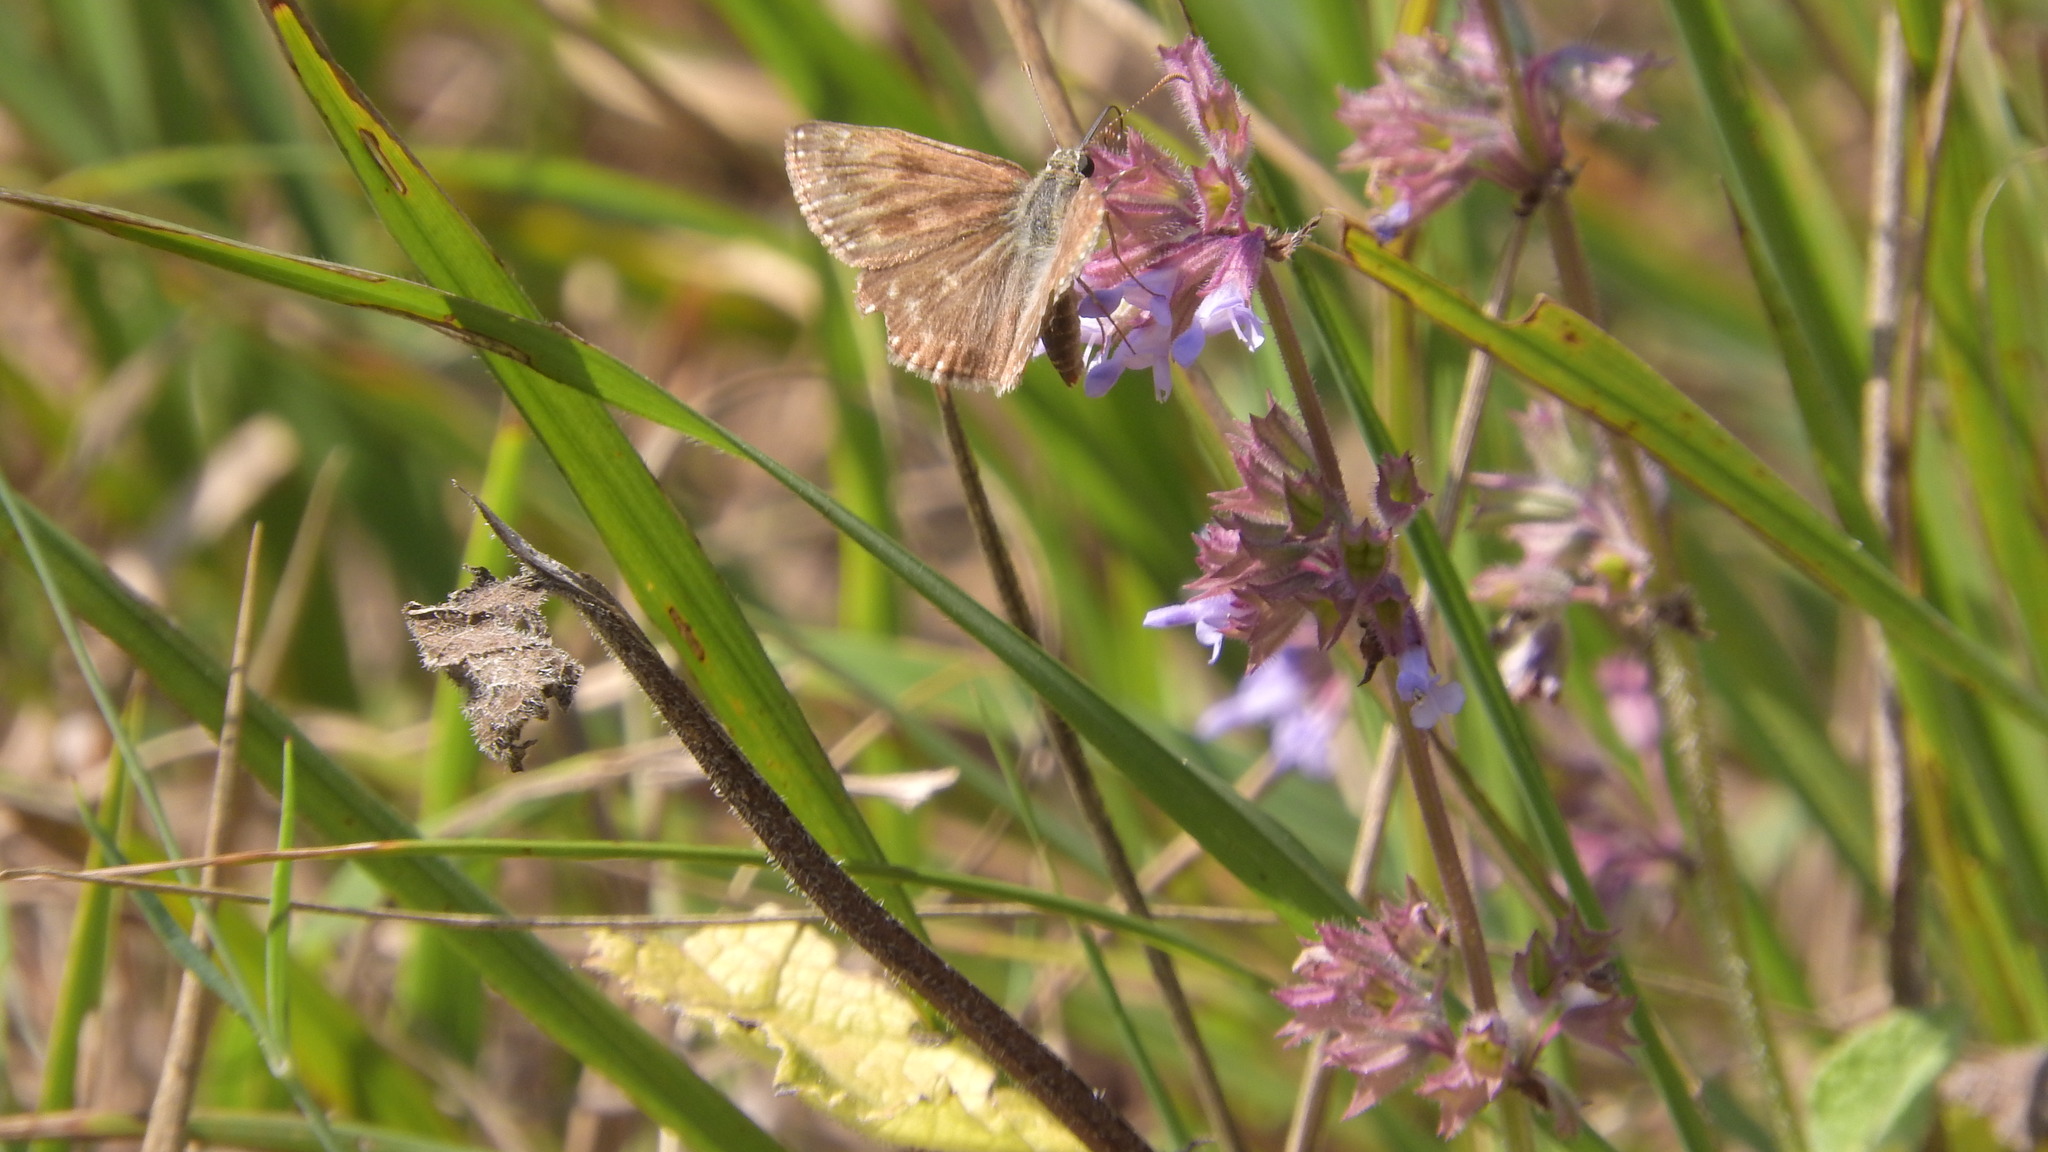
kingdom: Animalia
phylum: Arthropoda
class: Insecta
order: Lepidoptera
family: Hesperiidae
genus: Erynnis
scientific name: Erynnis tages
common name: Dingy skipper
